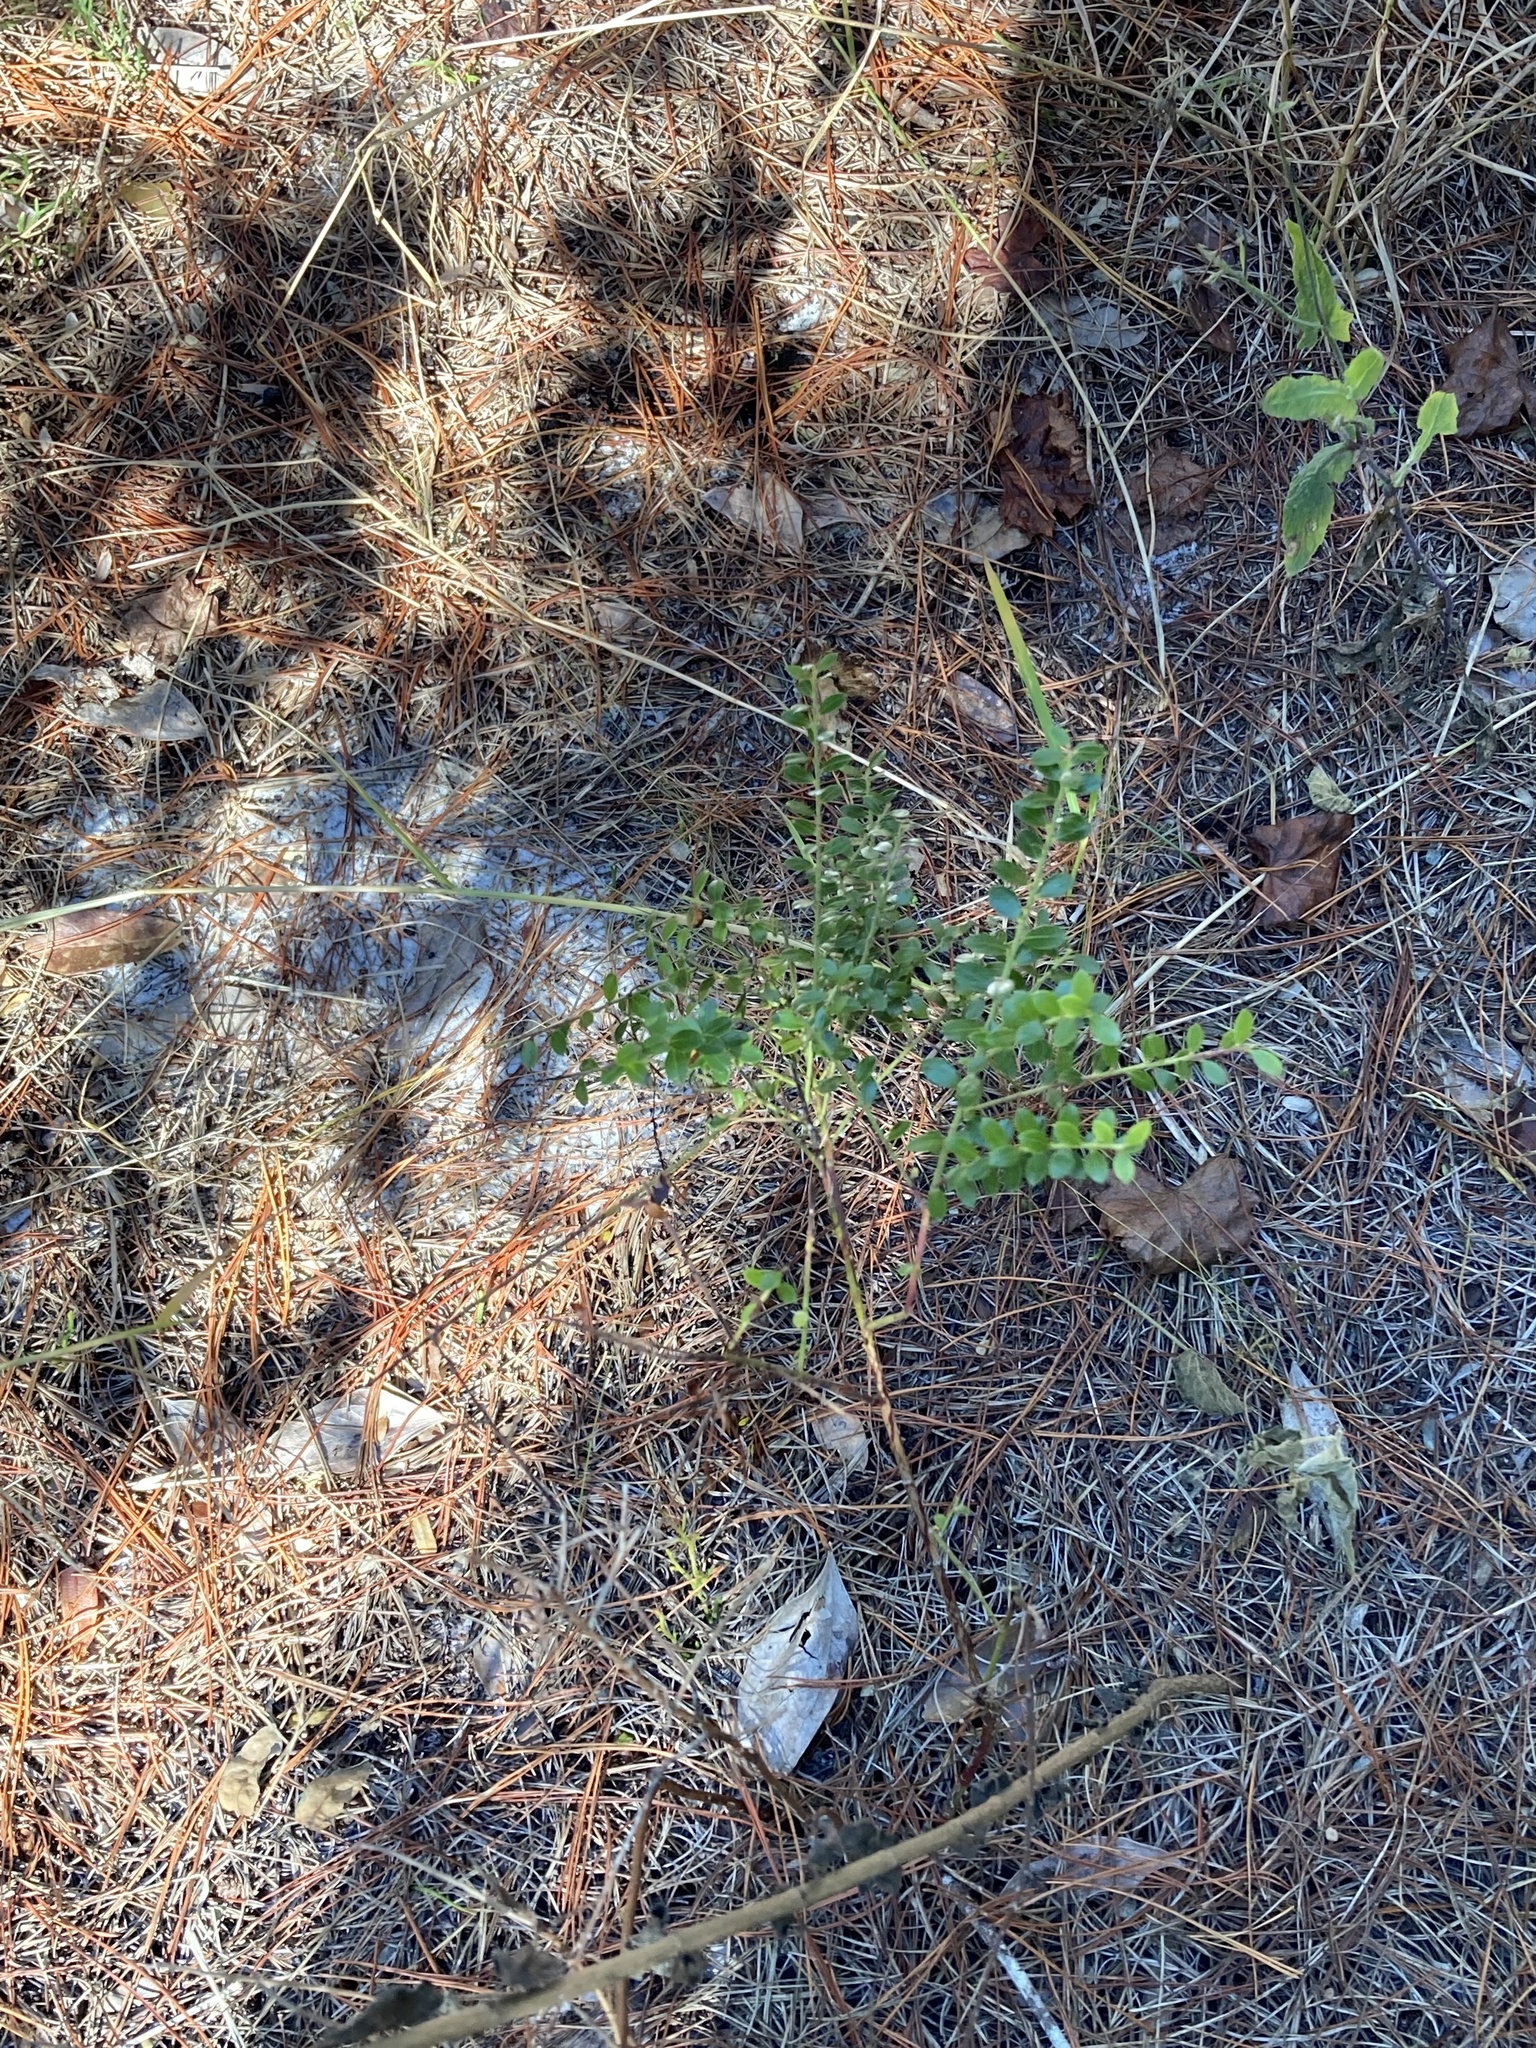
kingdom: Plantae
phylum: Tracheophyta
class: Magnoliopsida
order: Ericales
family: Ericaceae
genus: Vaccinium
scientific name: Vaccinium myrsinites
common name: Evergreen blueberry
